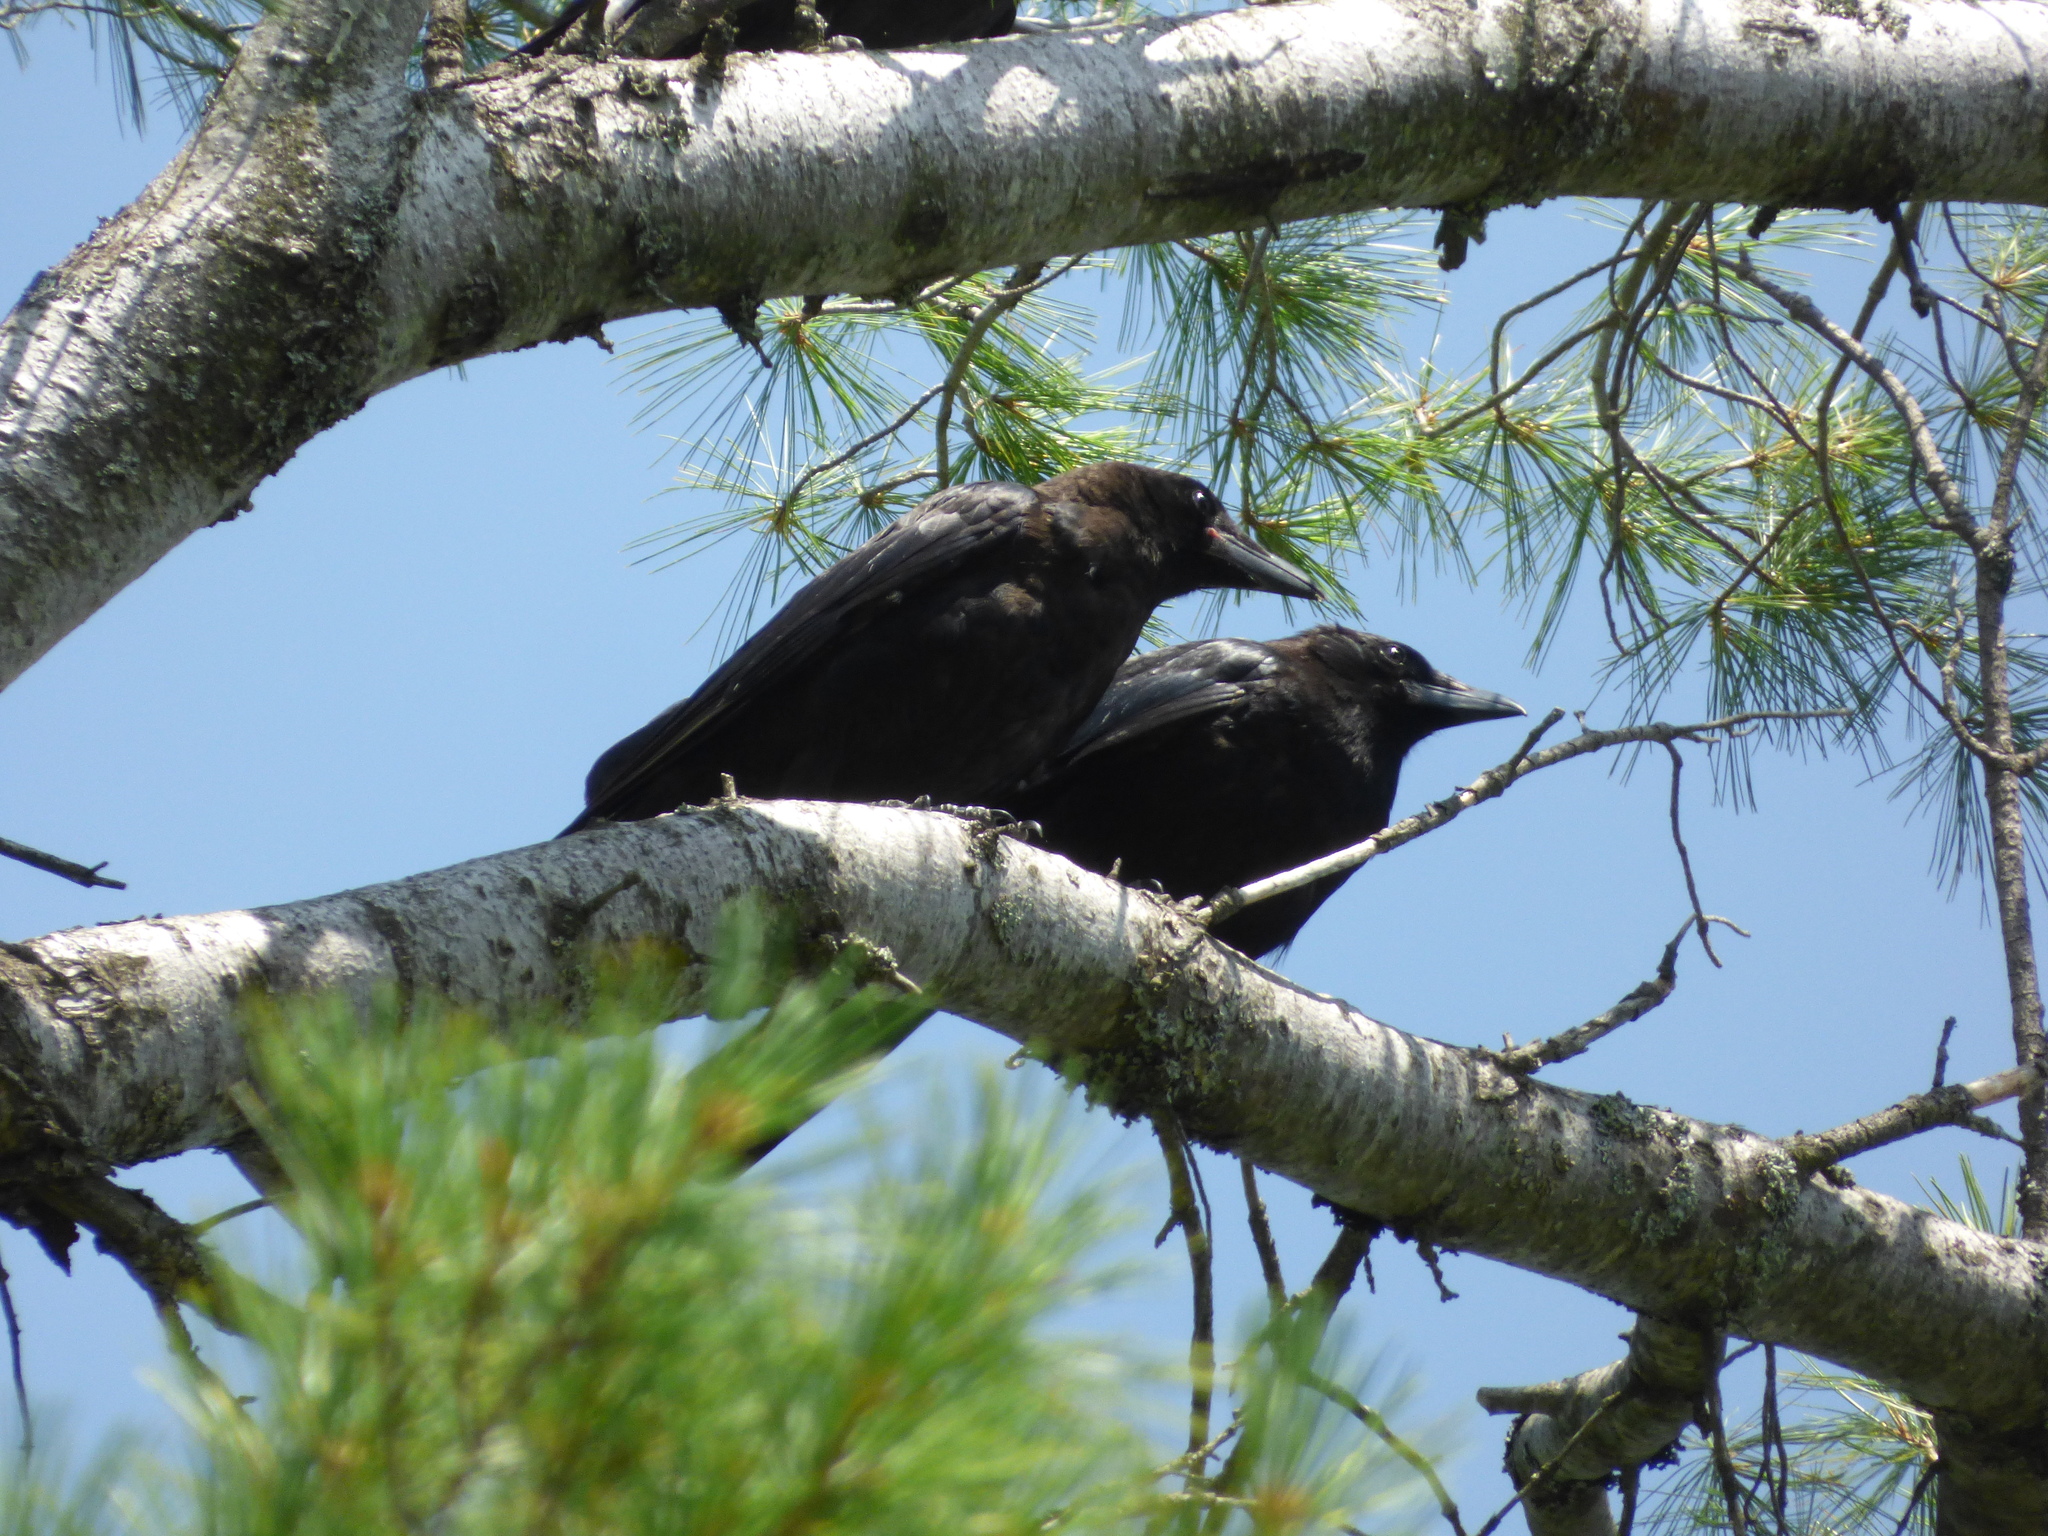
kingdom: Animalia
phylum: Chordata
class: Aves
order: Passeriformes
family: Corvidae
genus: Corvus
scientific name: Corvus brachyrhynchos
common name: American crow
